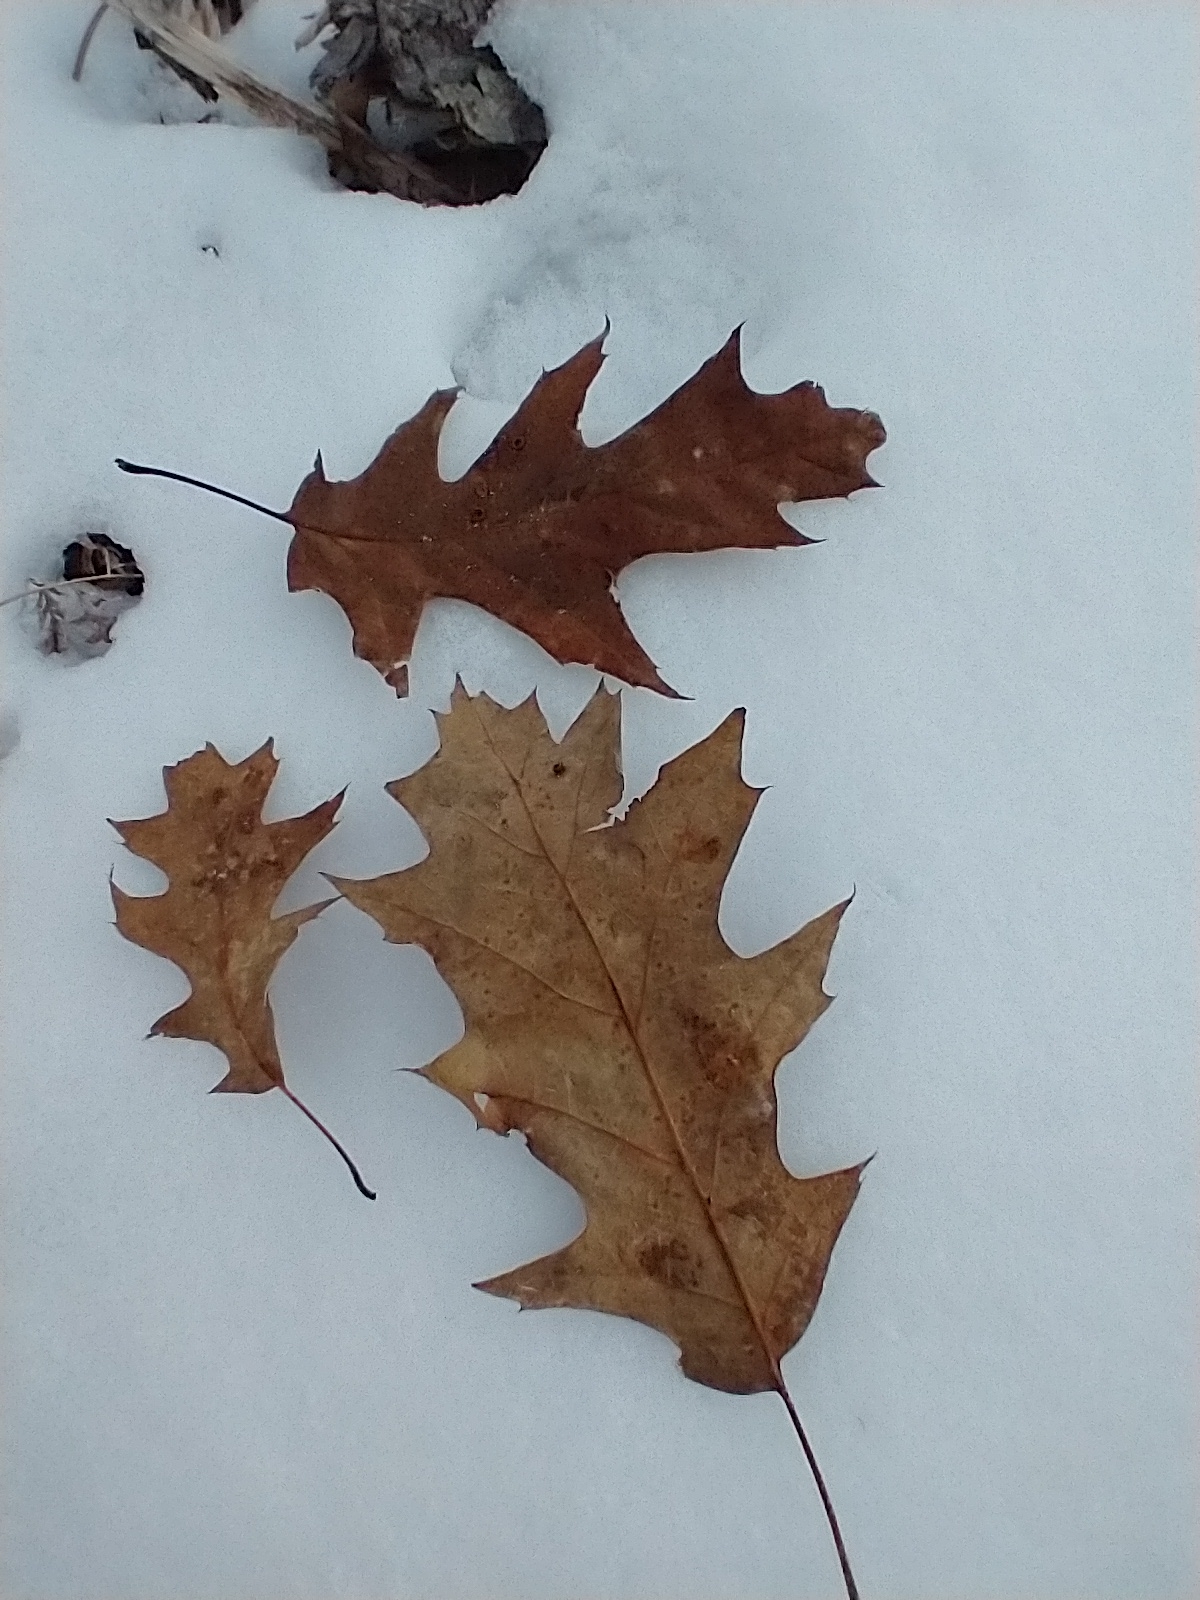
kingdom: Plantae
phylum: Tracheophyta
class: Magnoliopsida
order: Fagales
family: Fagaceae
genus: Quercus
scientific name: Quercus rubra
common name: Red oak
